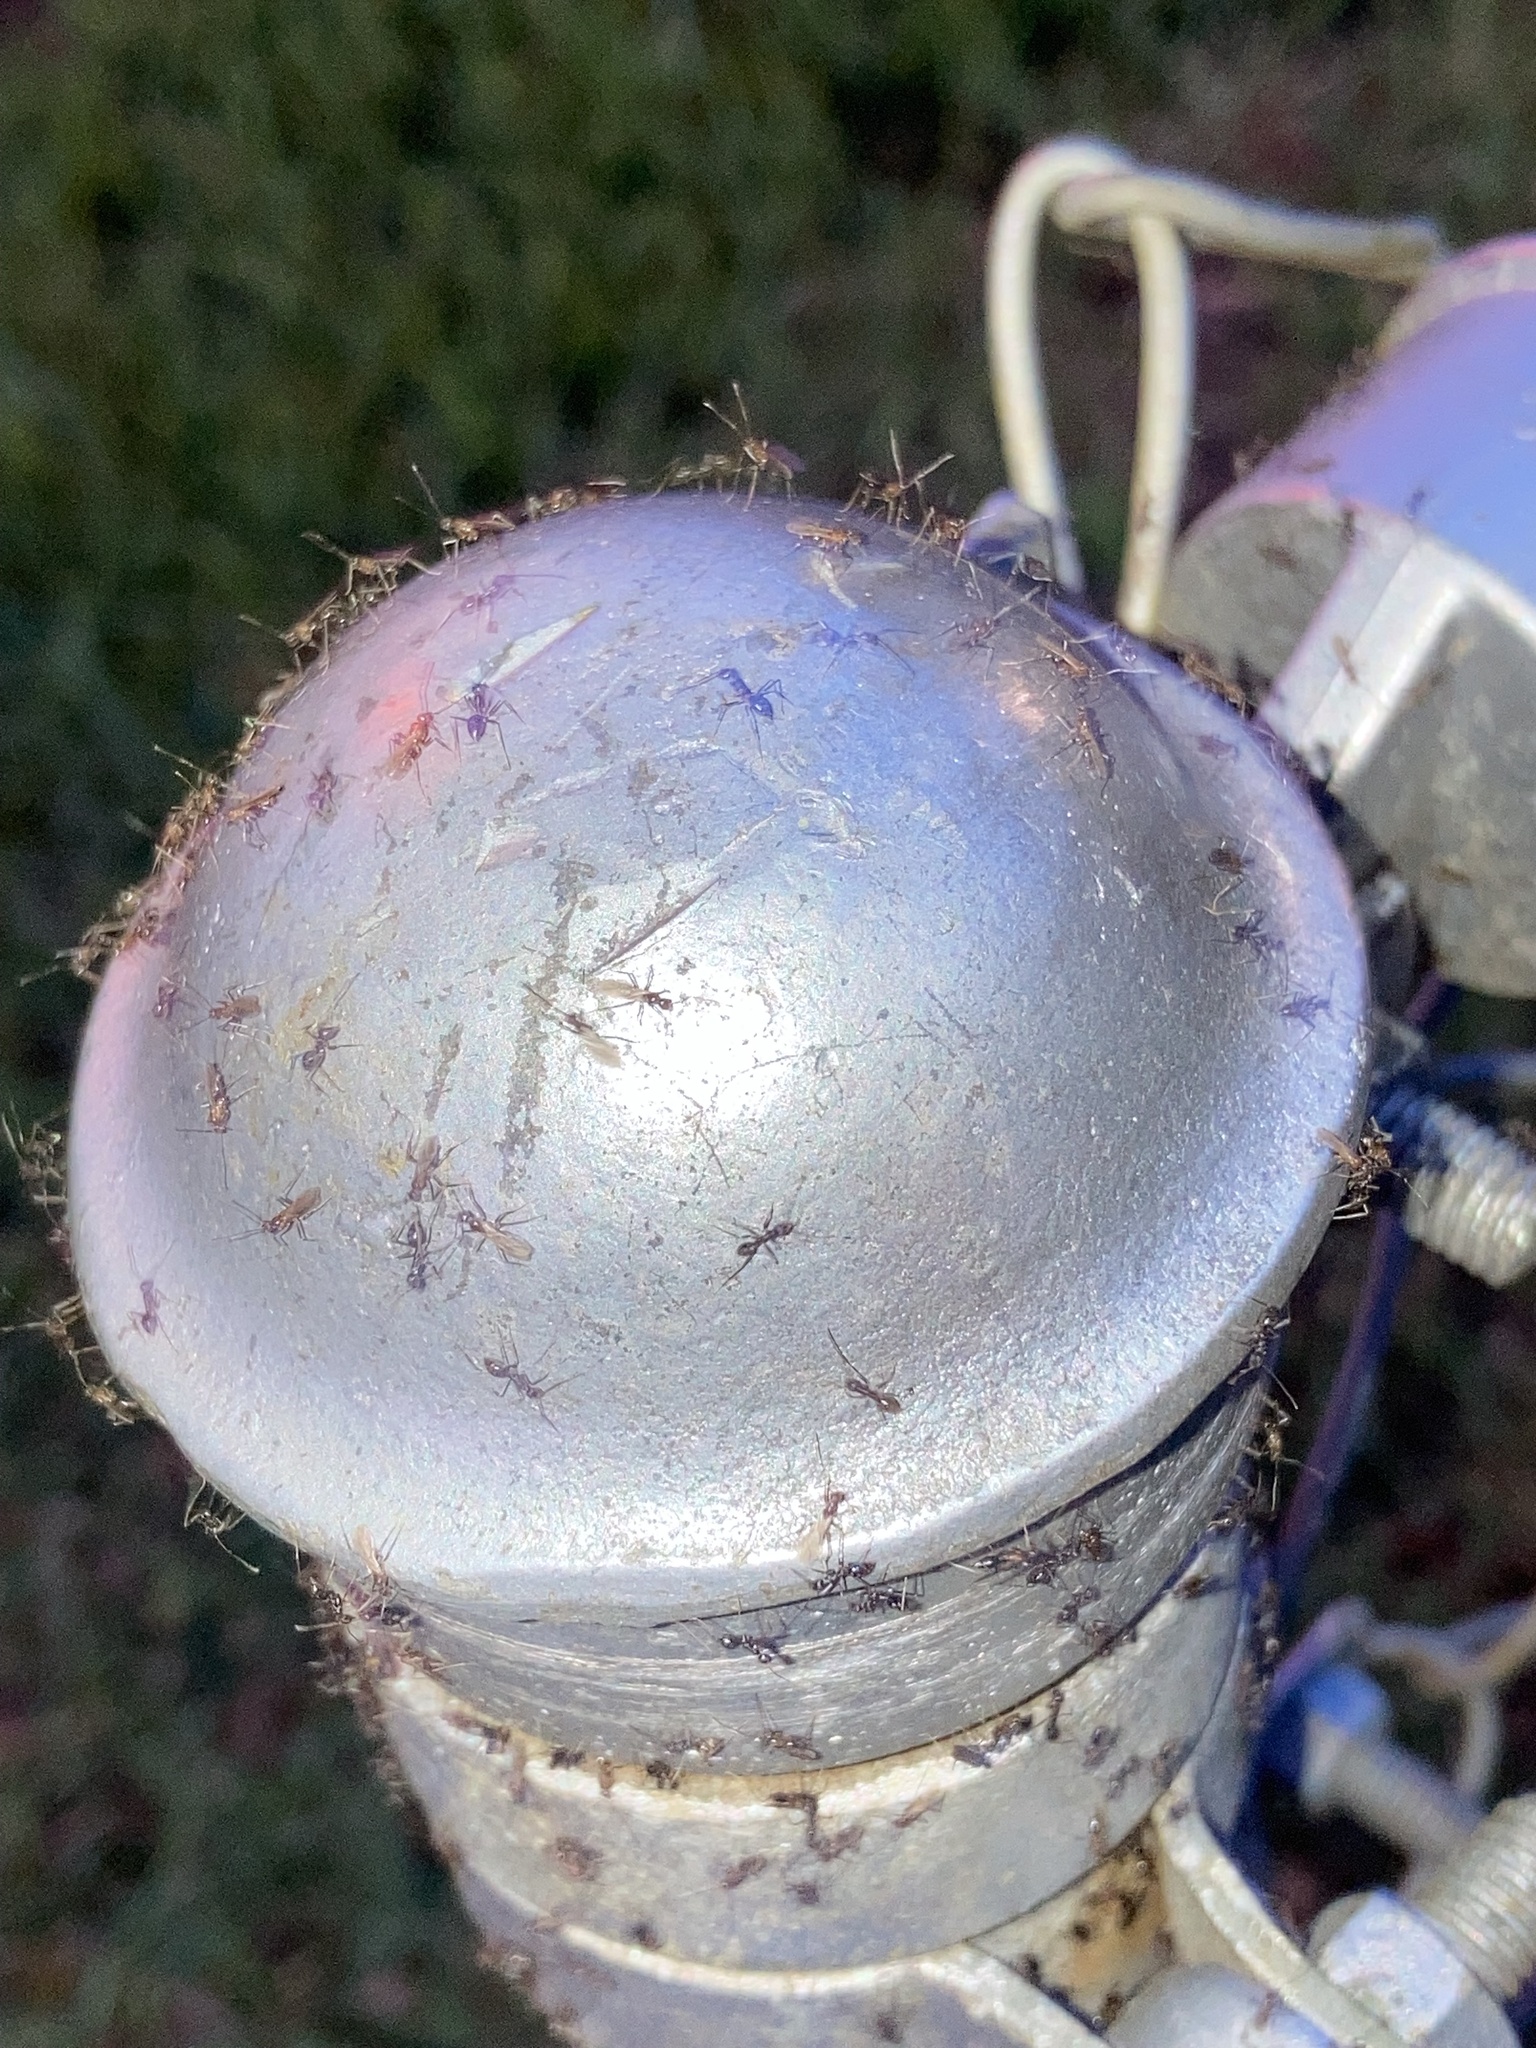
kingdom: Animalia
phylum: Arthropoda
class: Insecta
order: Hymenoptera
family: Formicidae
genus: Paratrechina
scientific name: Paratrechina longicornis
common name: Longhorned crazy ant
